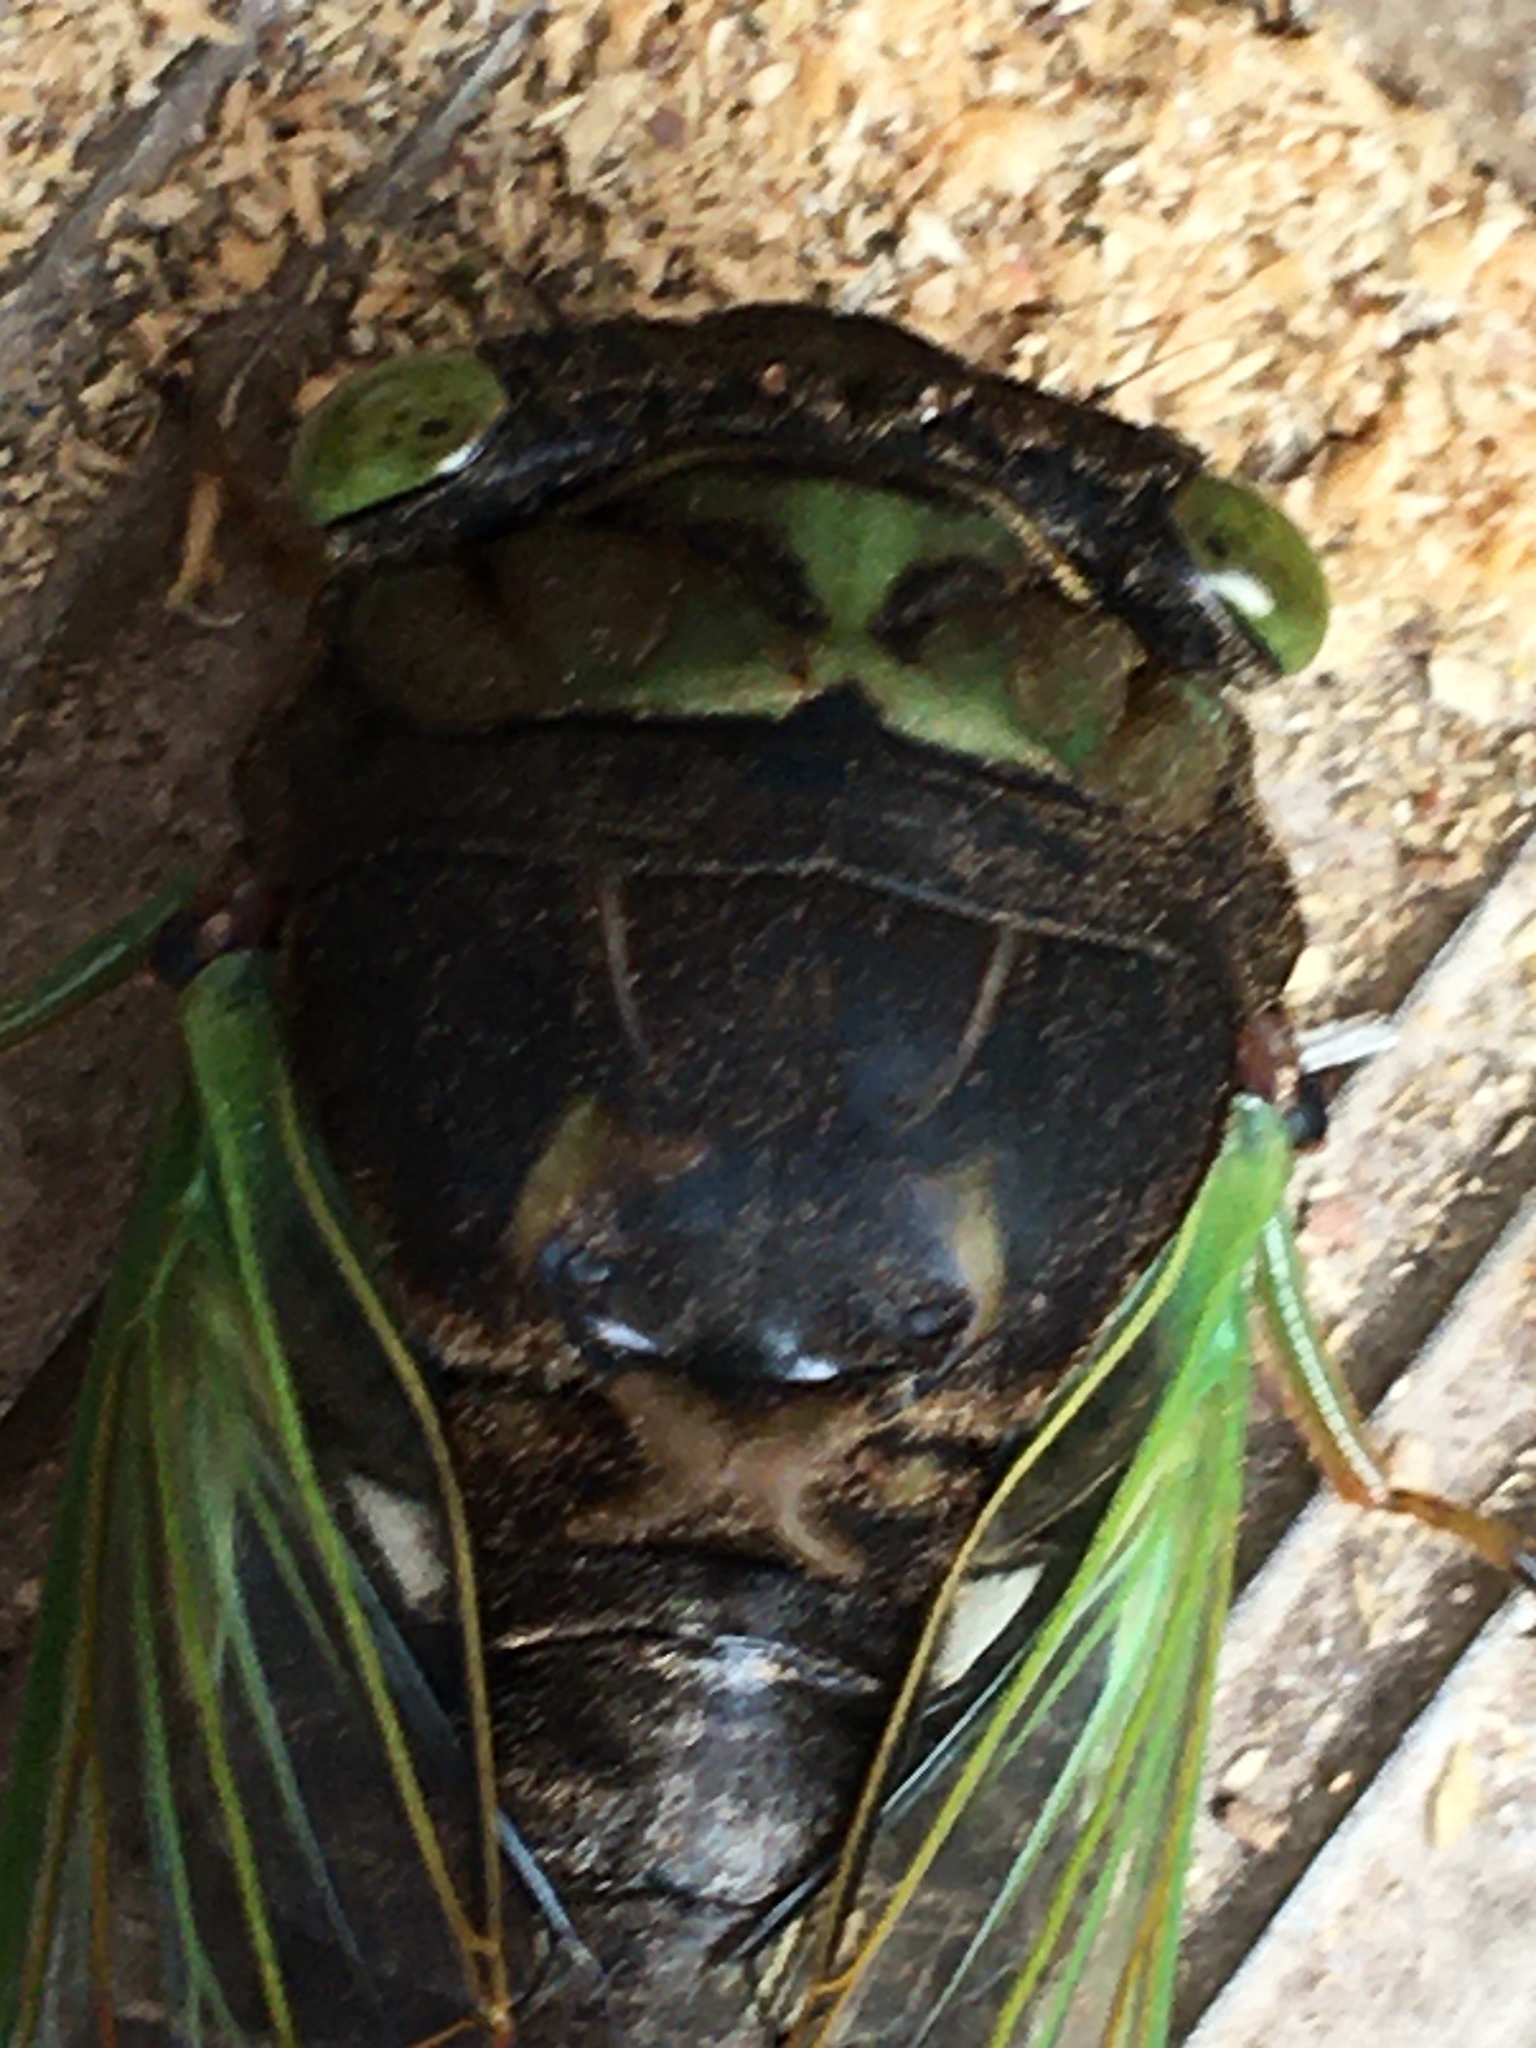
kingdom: Animalia
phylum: Arthropoda
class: Insecta
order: Hemiptera
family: Cicadidae
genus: Neotibicen
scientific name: Neotibicen tibicen
